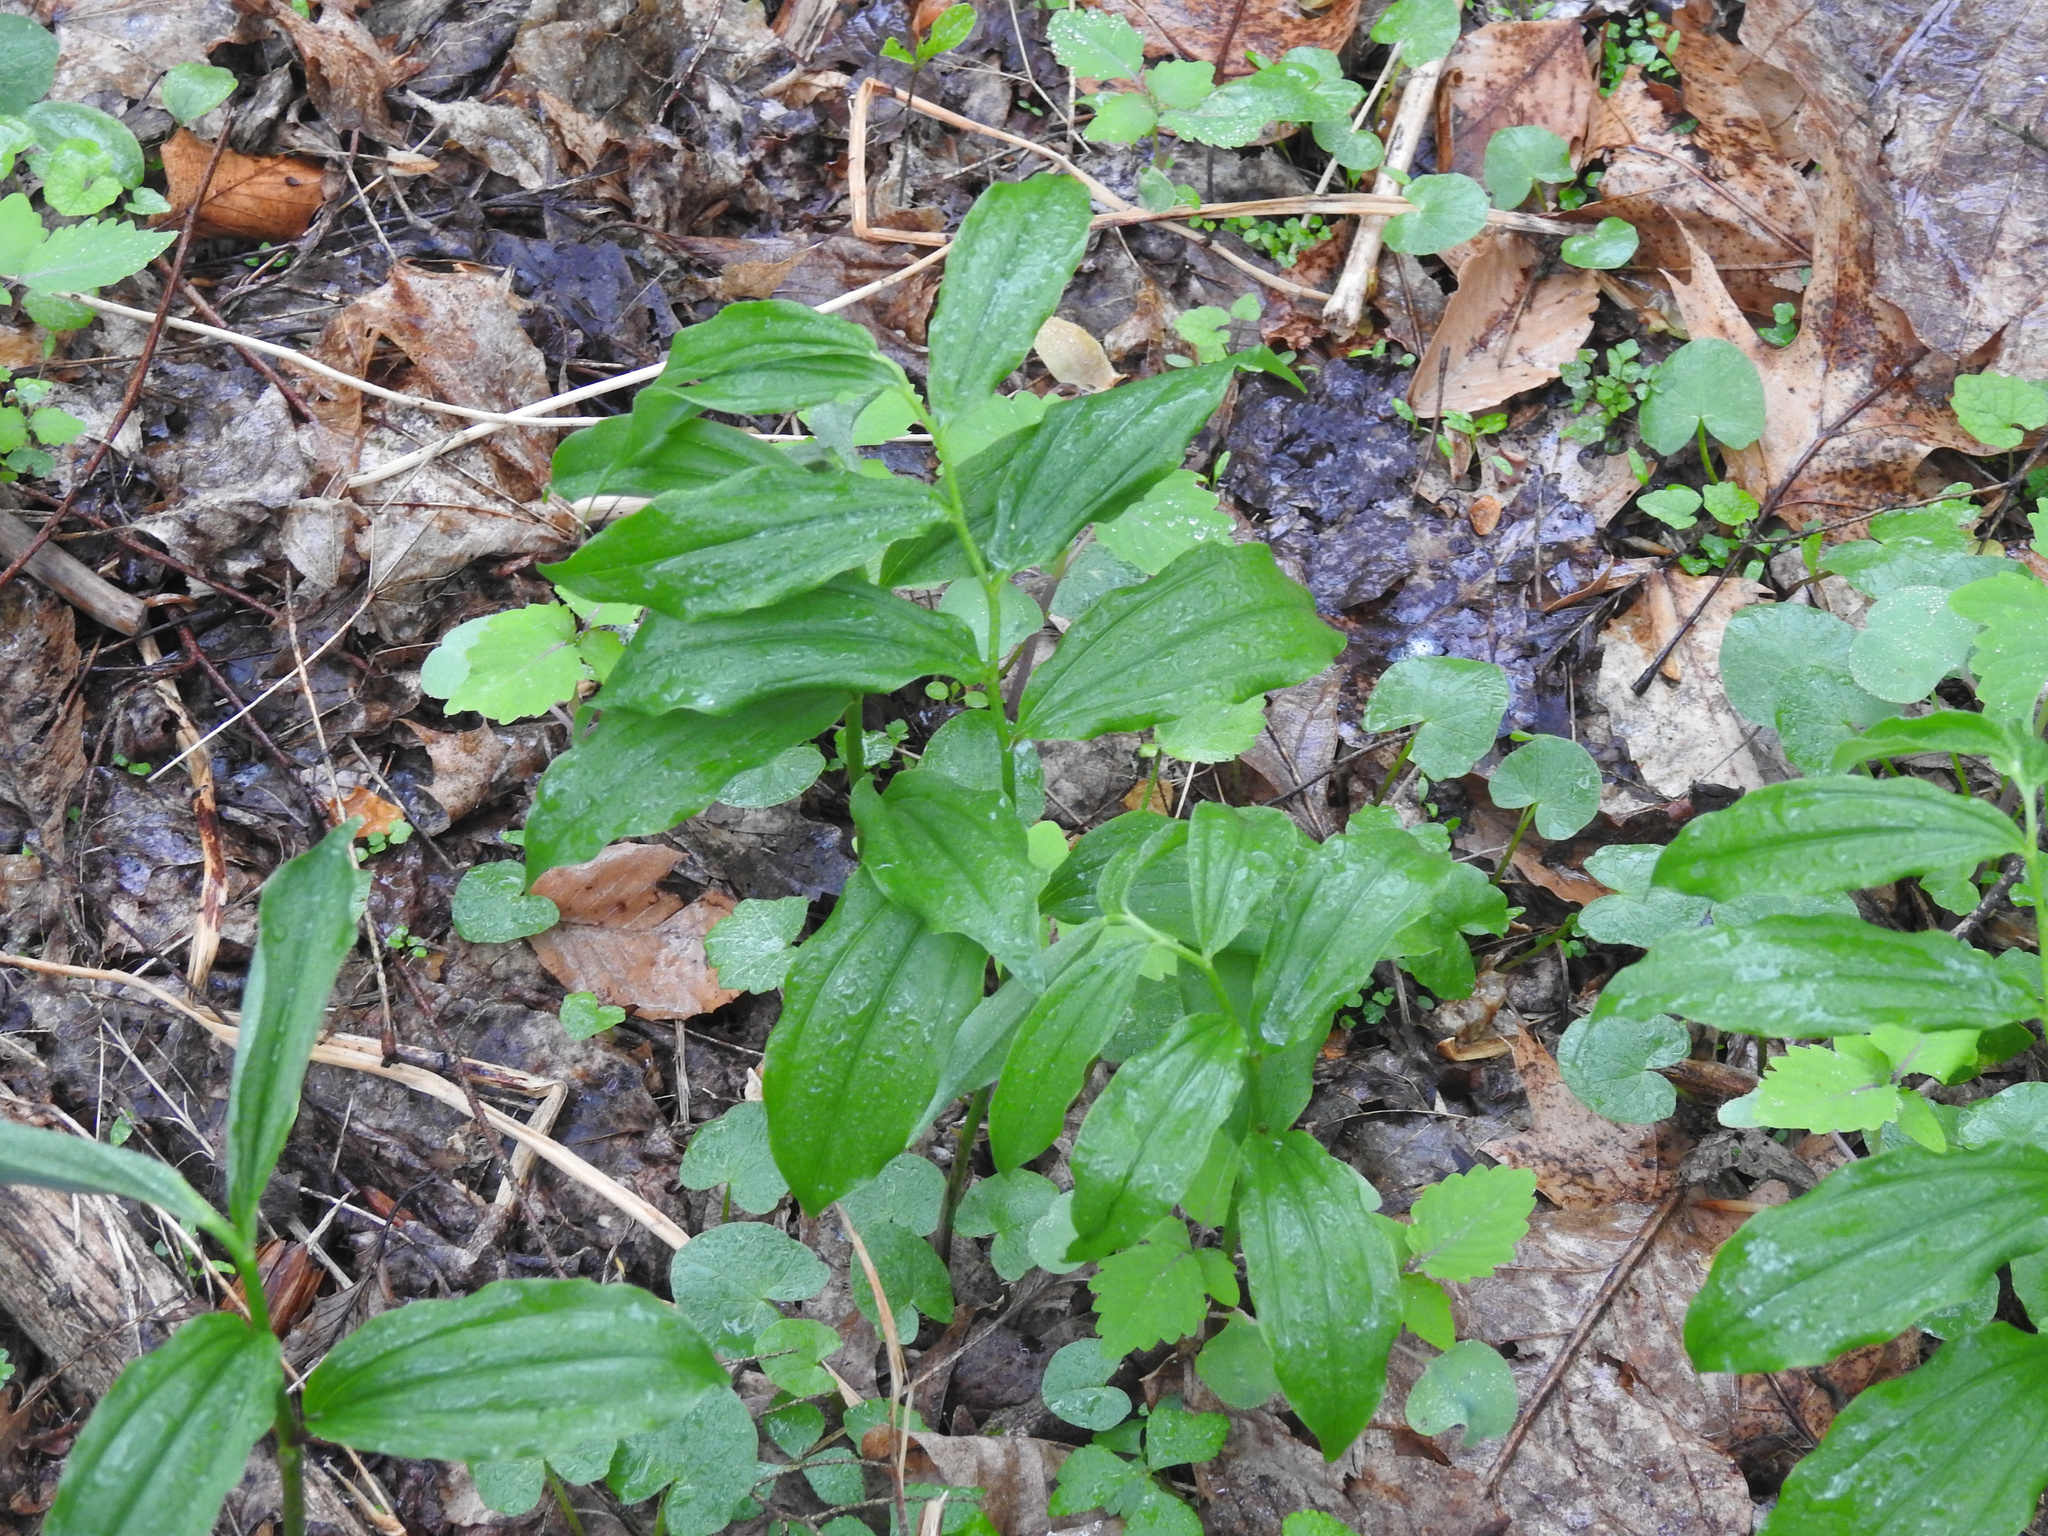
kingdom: Plantae
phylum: Tracheophyta
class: Liliopsida
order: Asparagales
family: Asparagaceae
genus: Maianthemum
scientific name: Maianthemum racemosum
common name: False spikenard
